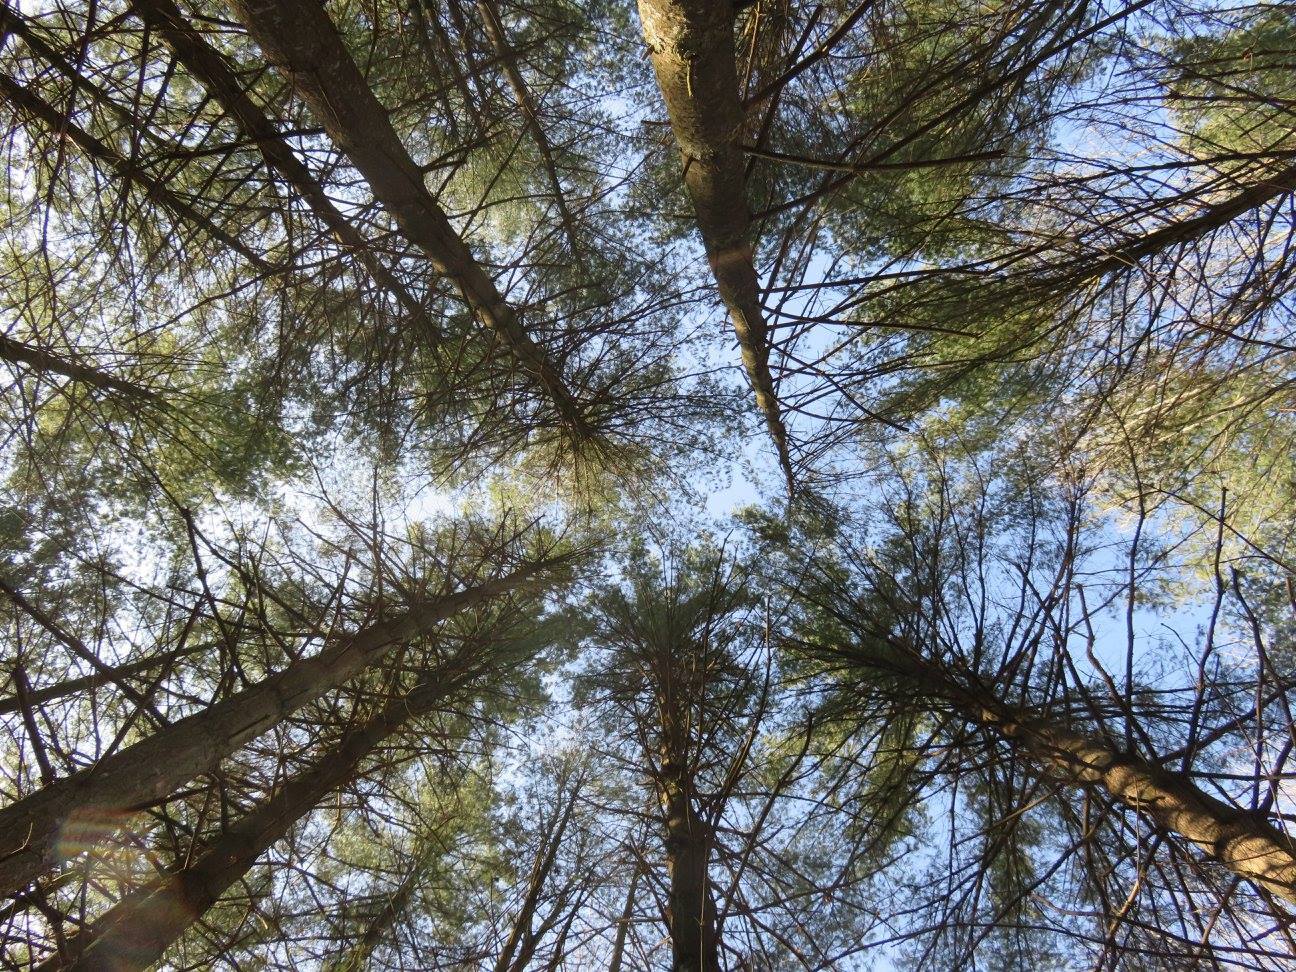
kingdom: Plantae
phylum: Tracheophyta
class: Pinopsida
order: Pinales
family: Pinaceae
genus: Pinus
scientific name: Pinus strobus
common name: Weymouth pine
